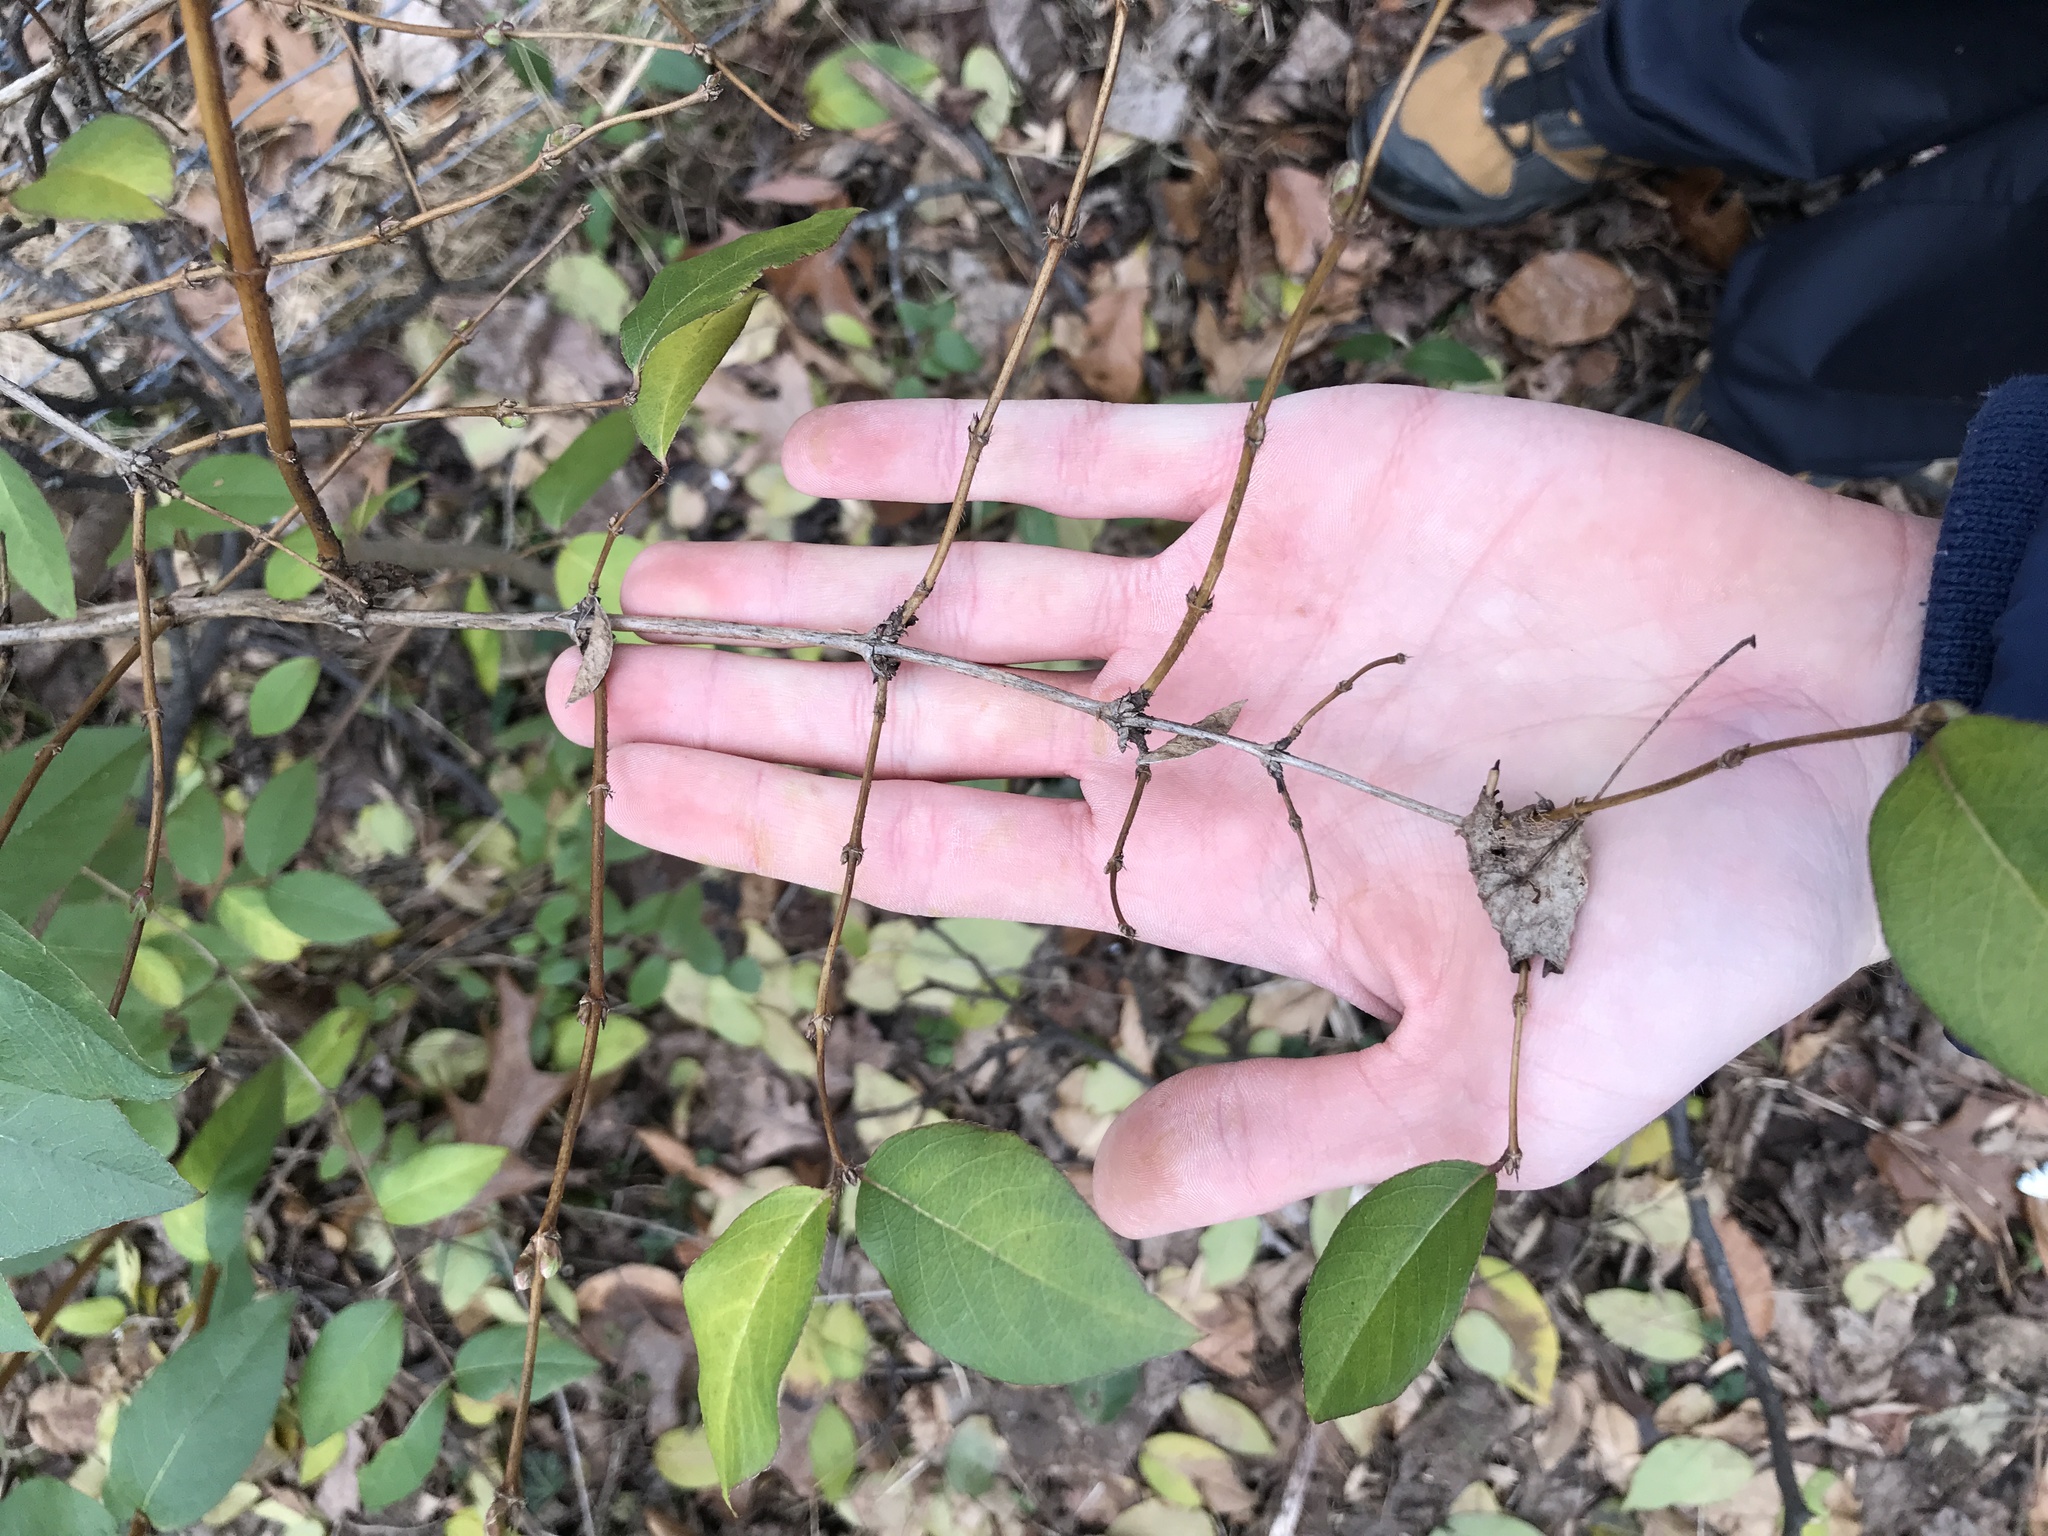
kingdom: Plantae
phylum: Tracheophyta
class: Magnoliopsida
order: Dipsacales
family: Caprifoliaceae
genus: Lonicera
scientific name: Lonicera fragrantissima
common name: Fragrant honeysuckle
